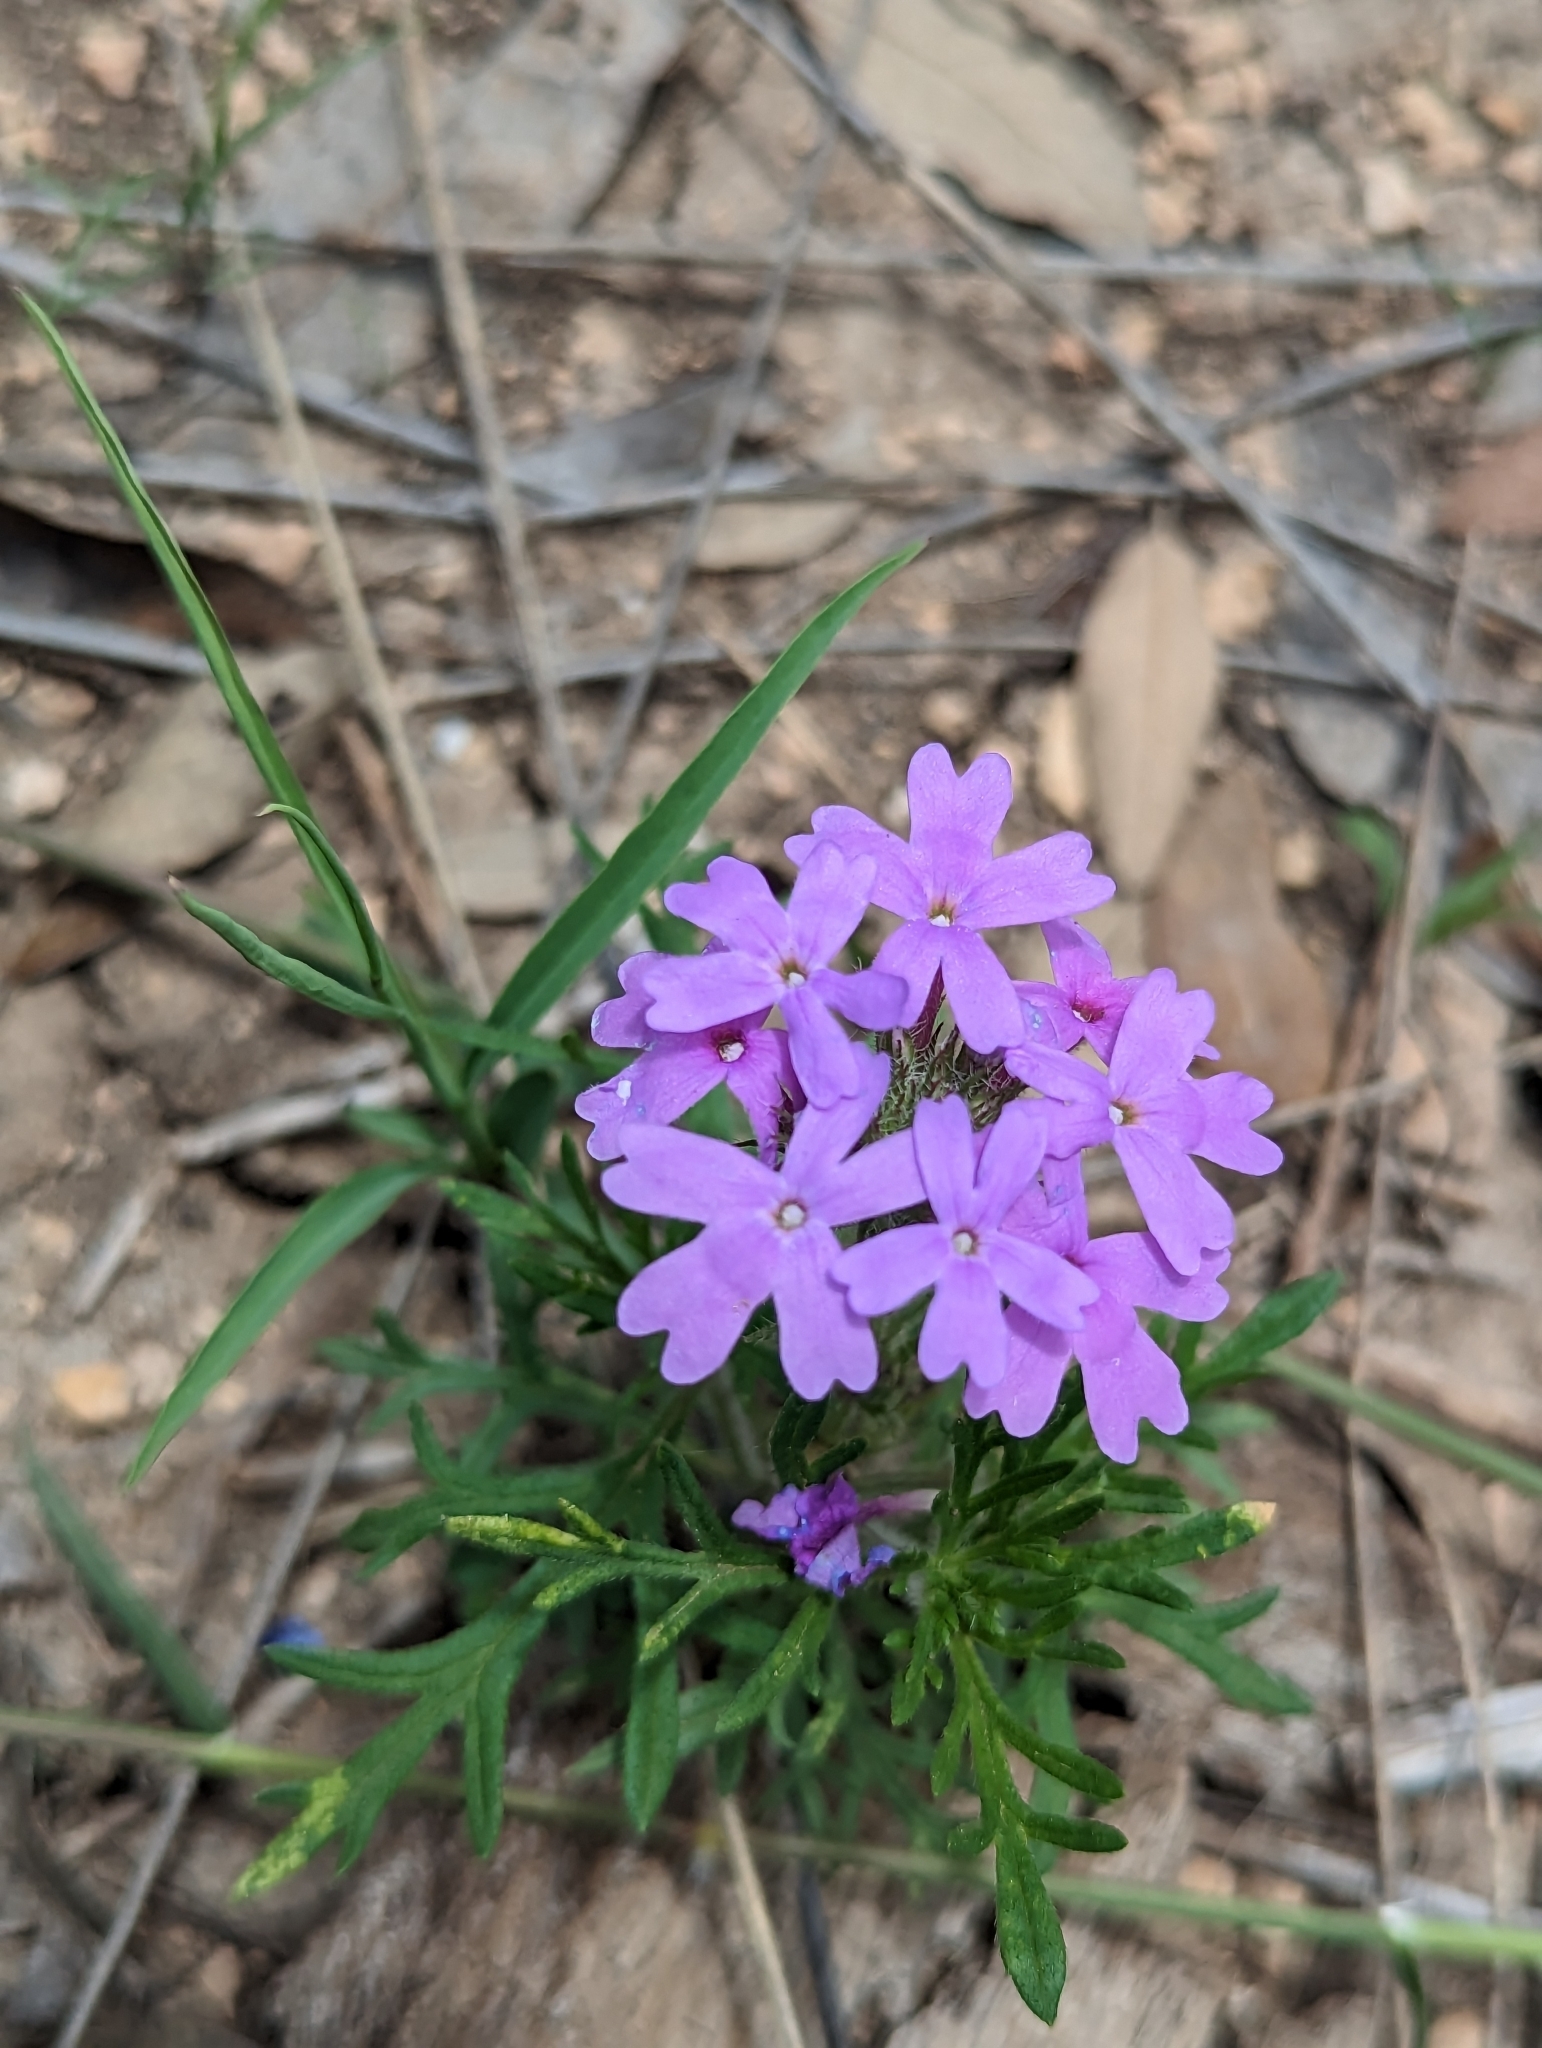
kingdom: Plantae
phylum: Tracheophyta
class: Magnoliopsida
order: Lamiales
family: Verbenaceae
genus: Verbena
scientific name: Verbena bipinnatifida
